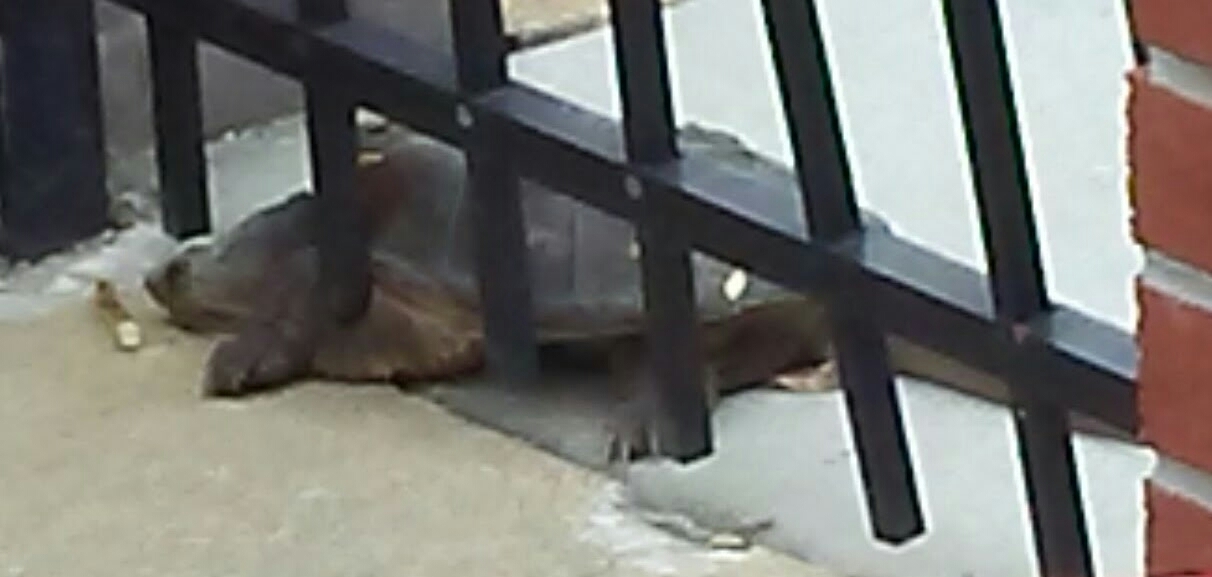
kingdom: Animalia
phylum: Chordata
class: Testudines
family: Chelydridae
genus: Chelydra
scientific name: Chelydra serpentina
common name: Common snapping turtle
